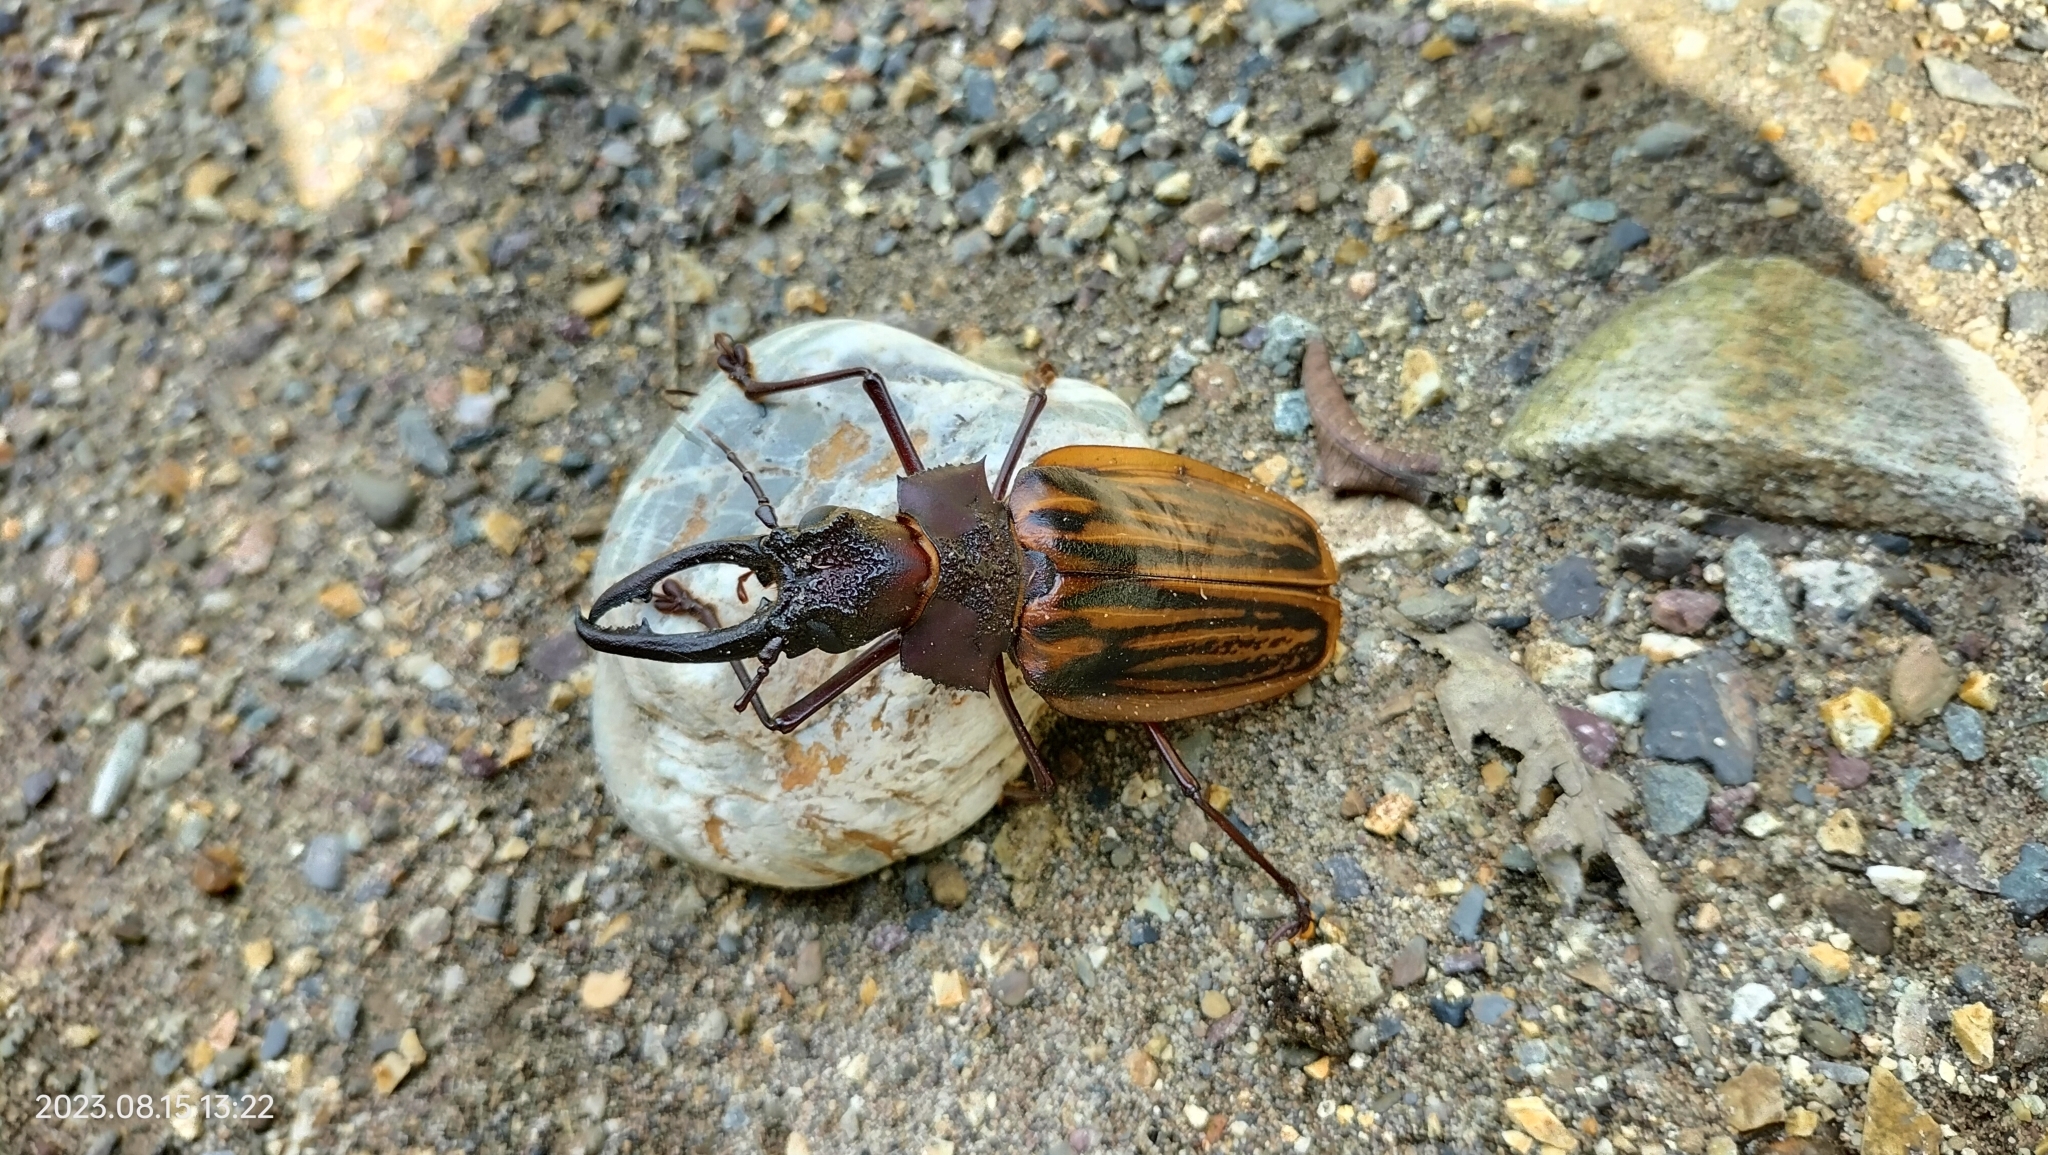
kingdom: Animalia
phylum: Arthropoda
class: Insecta
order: Coleoptera
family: Cerambycidae
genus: Macrodontia
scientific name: Macrodontia
